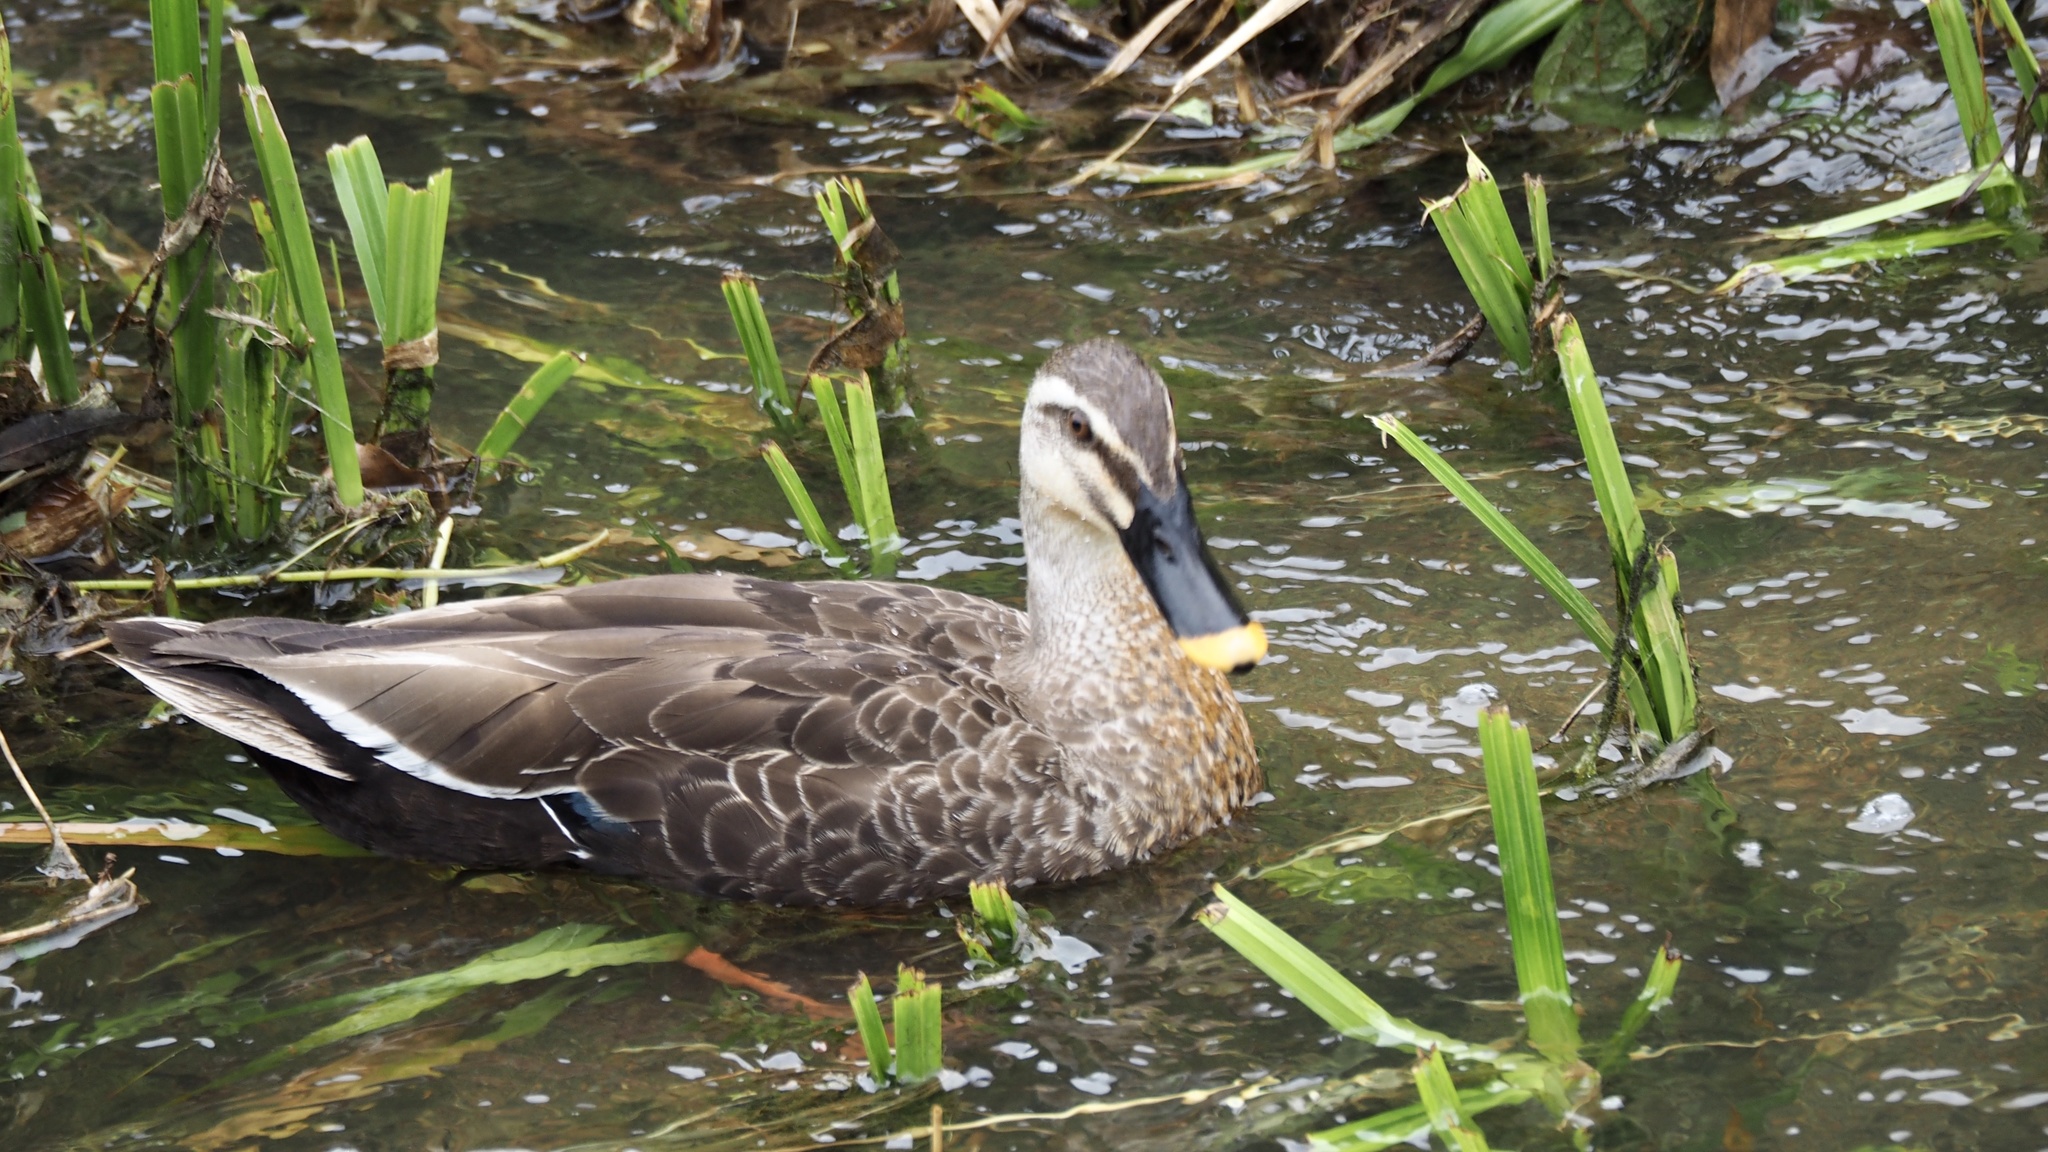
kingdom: Animalia
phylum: Chordata
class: Aves
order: Anseriformes
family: Anatidae
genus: Anas
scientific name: Anas zonorhyncha
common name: Eastern spot-billed duck
